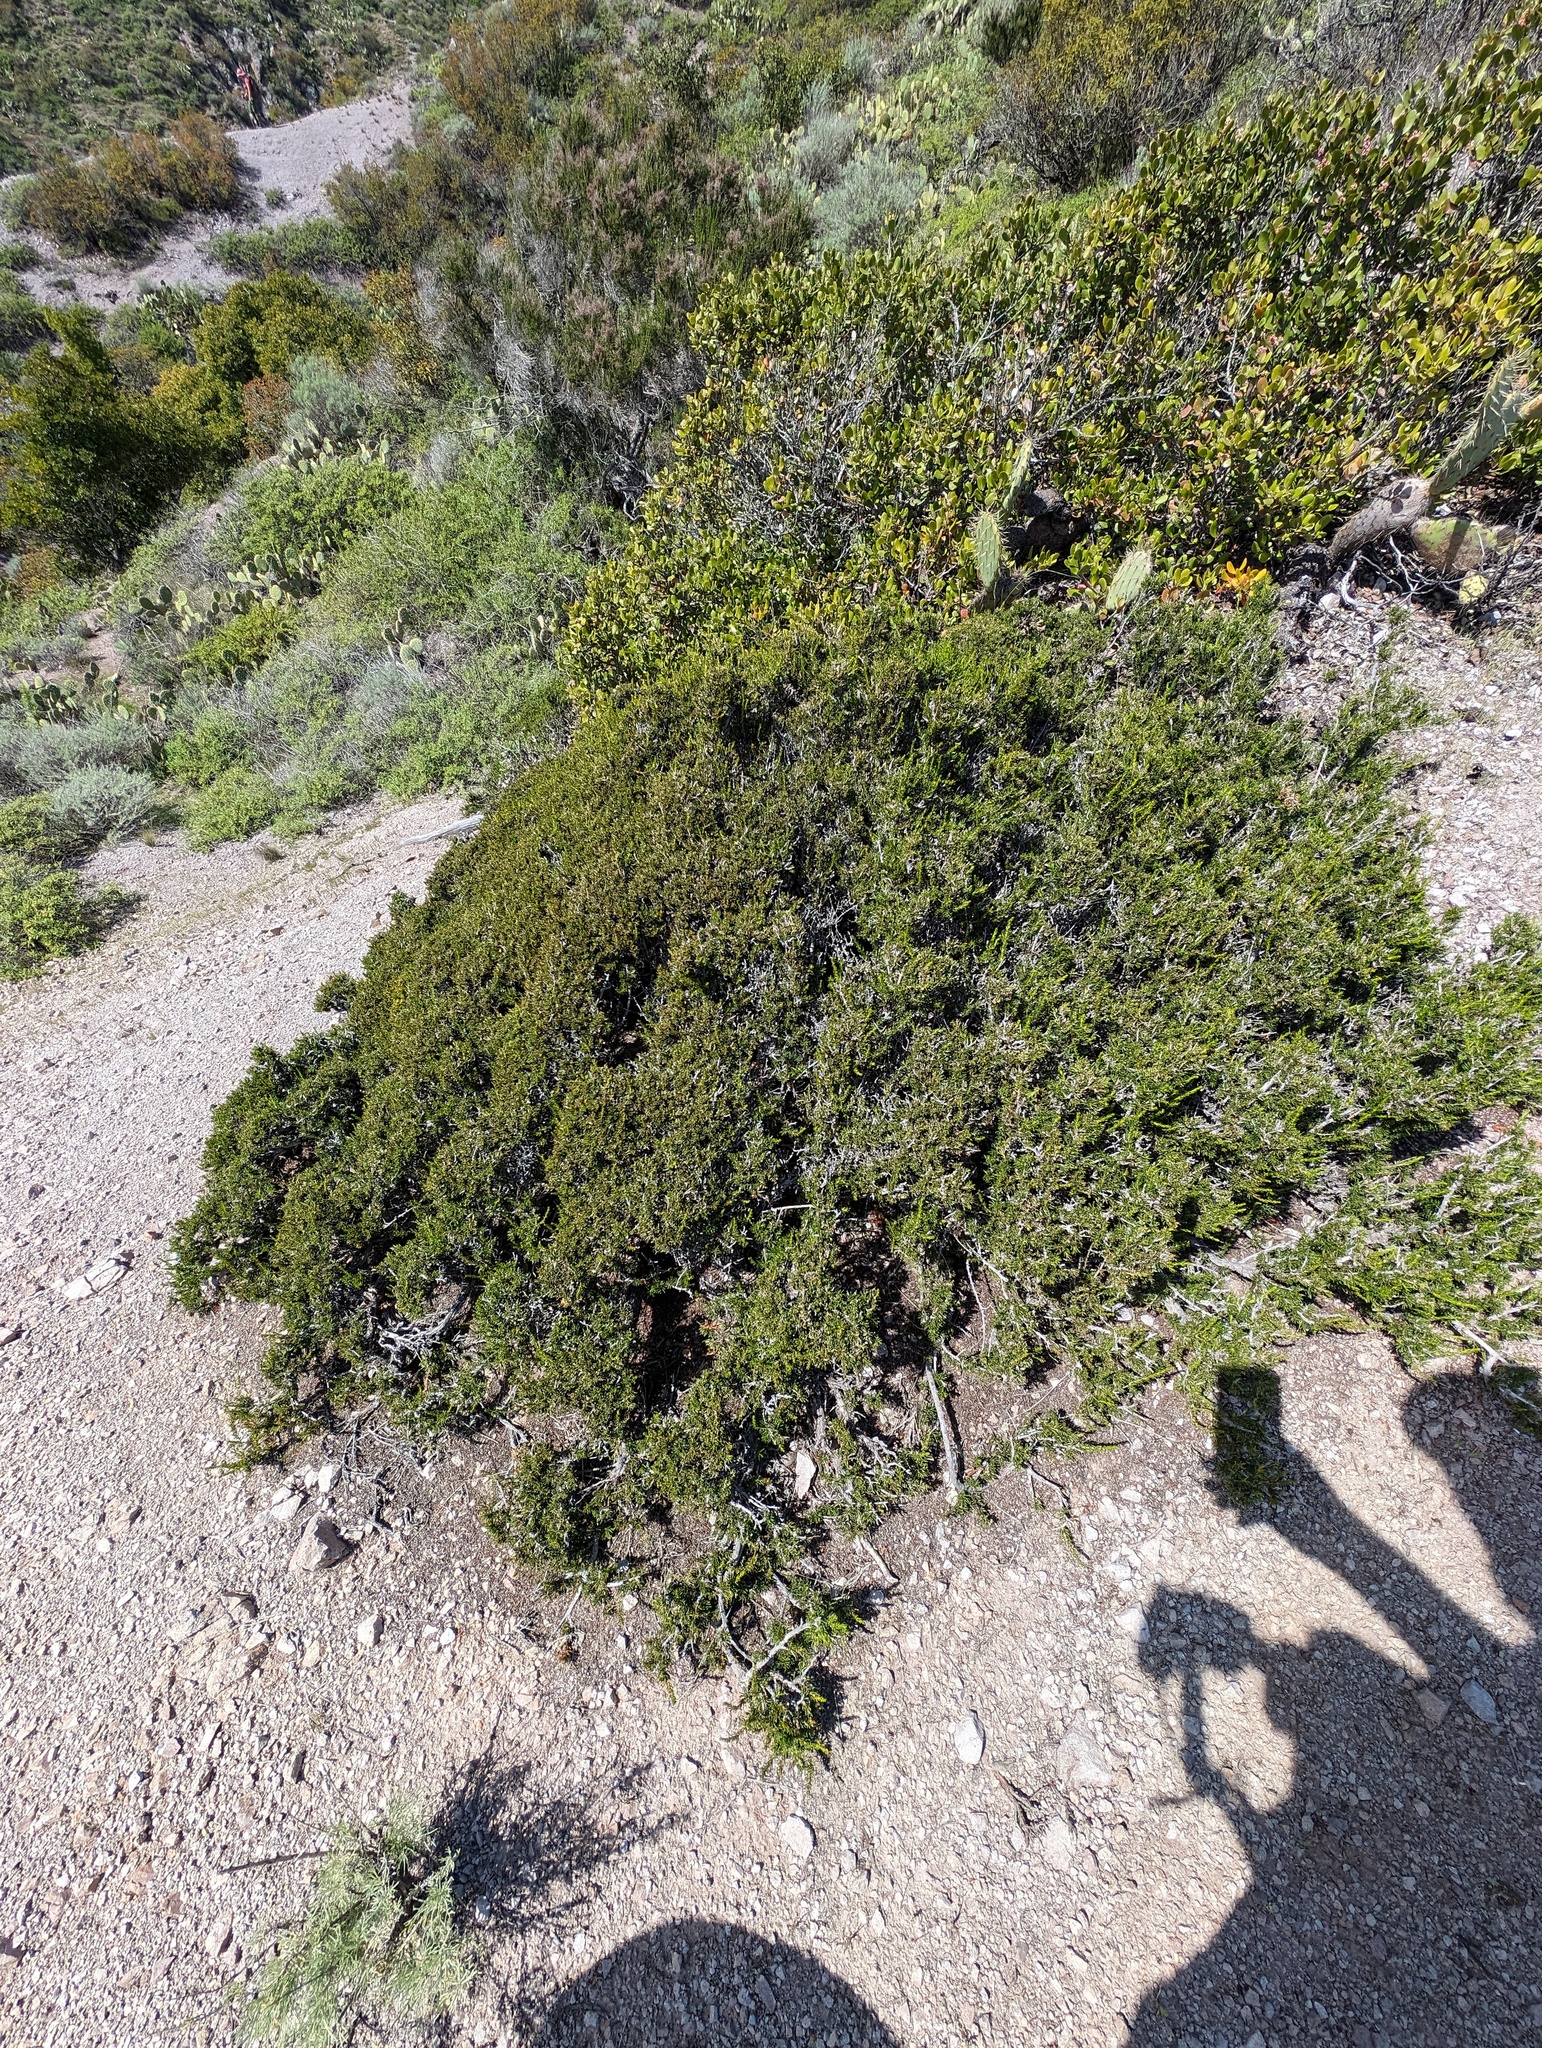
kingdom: Plantae
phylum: Tracheophyta
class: Magnoliopsida
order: Rosales
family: Rosaceae
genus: Adenostoma
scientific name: Adenostoma fasciculatum
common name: Chamise
